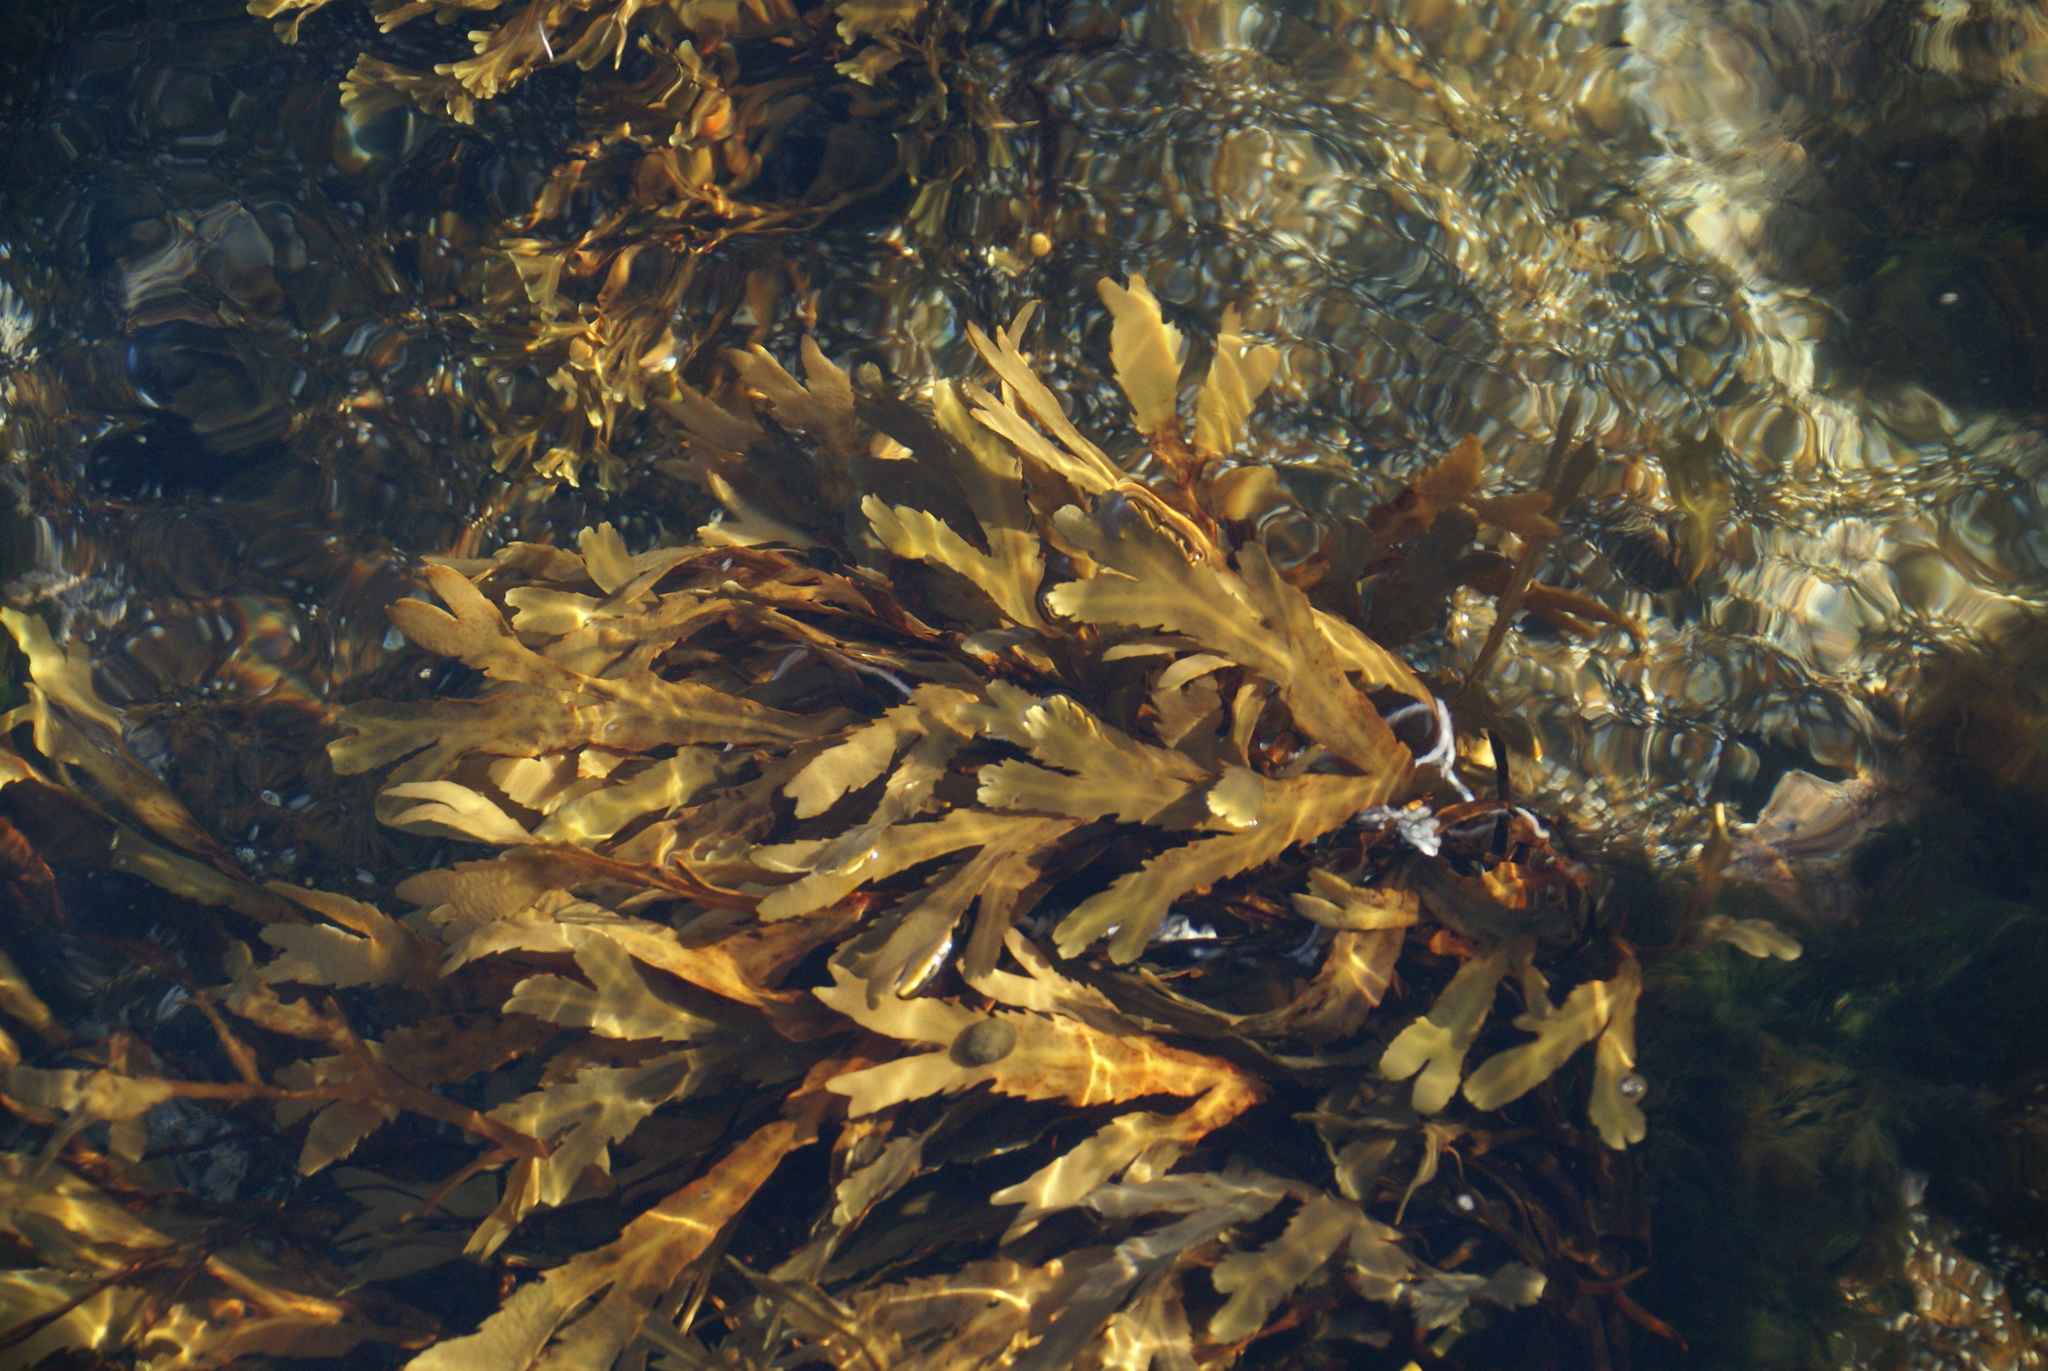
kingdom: Chromista
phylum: Ochrophyta
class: Phaeophyceae
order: Fucales
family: Fucaceae
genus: Fucus
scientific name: Fucus serratus
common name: Toothed wrack
